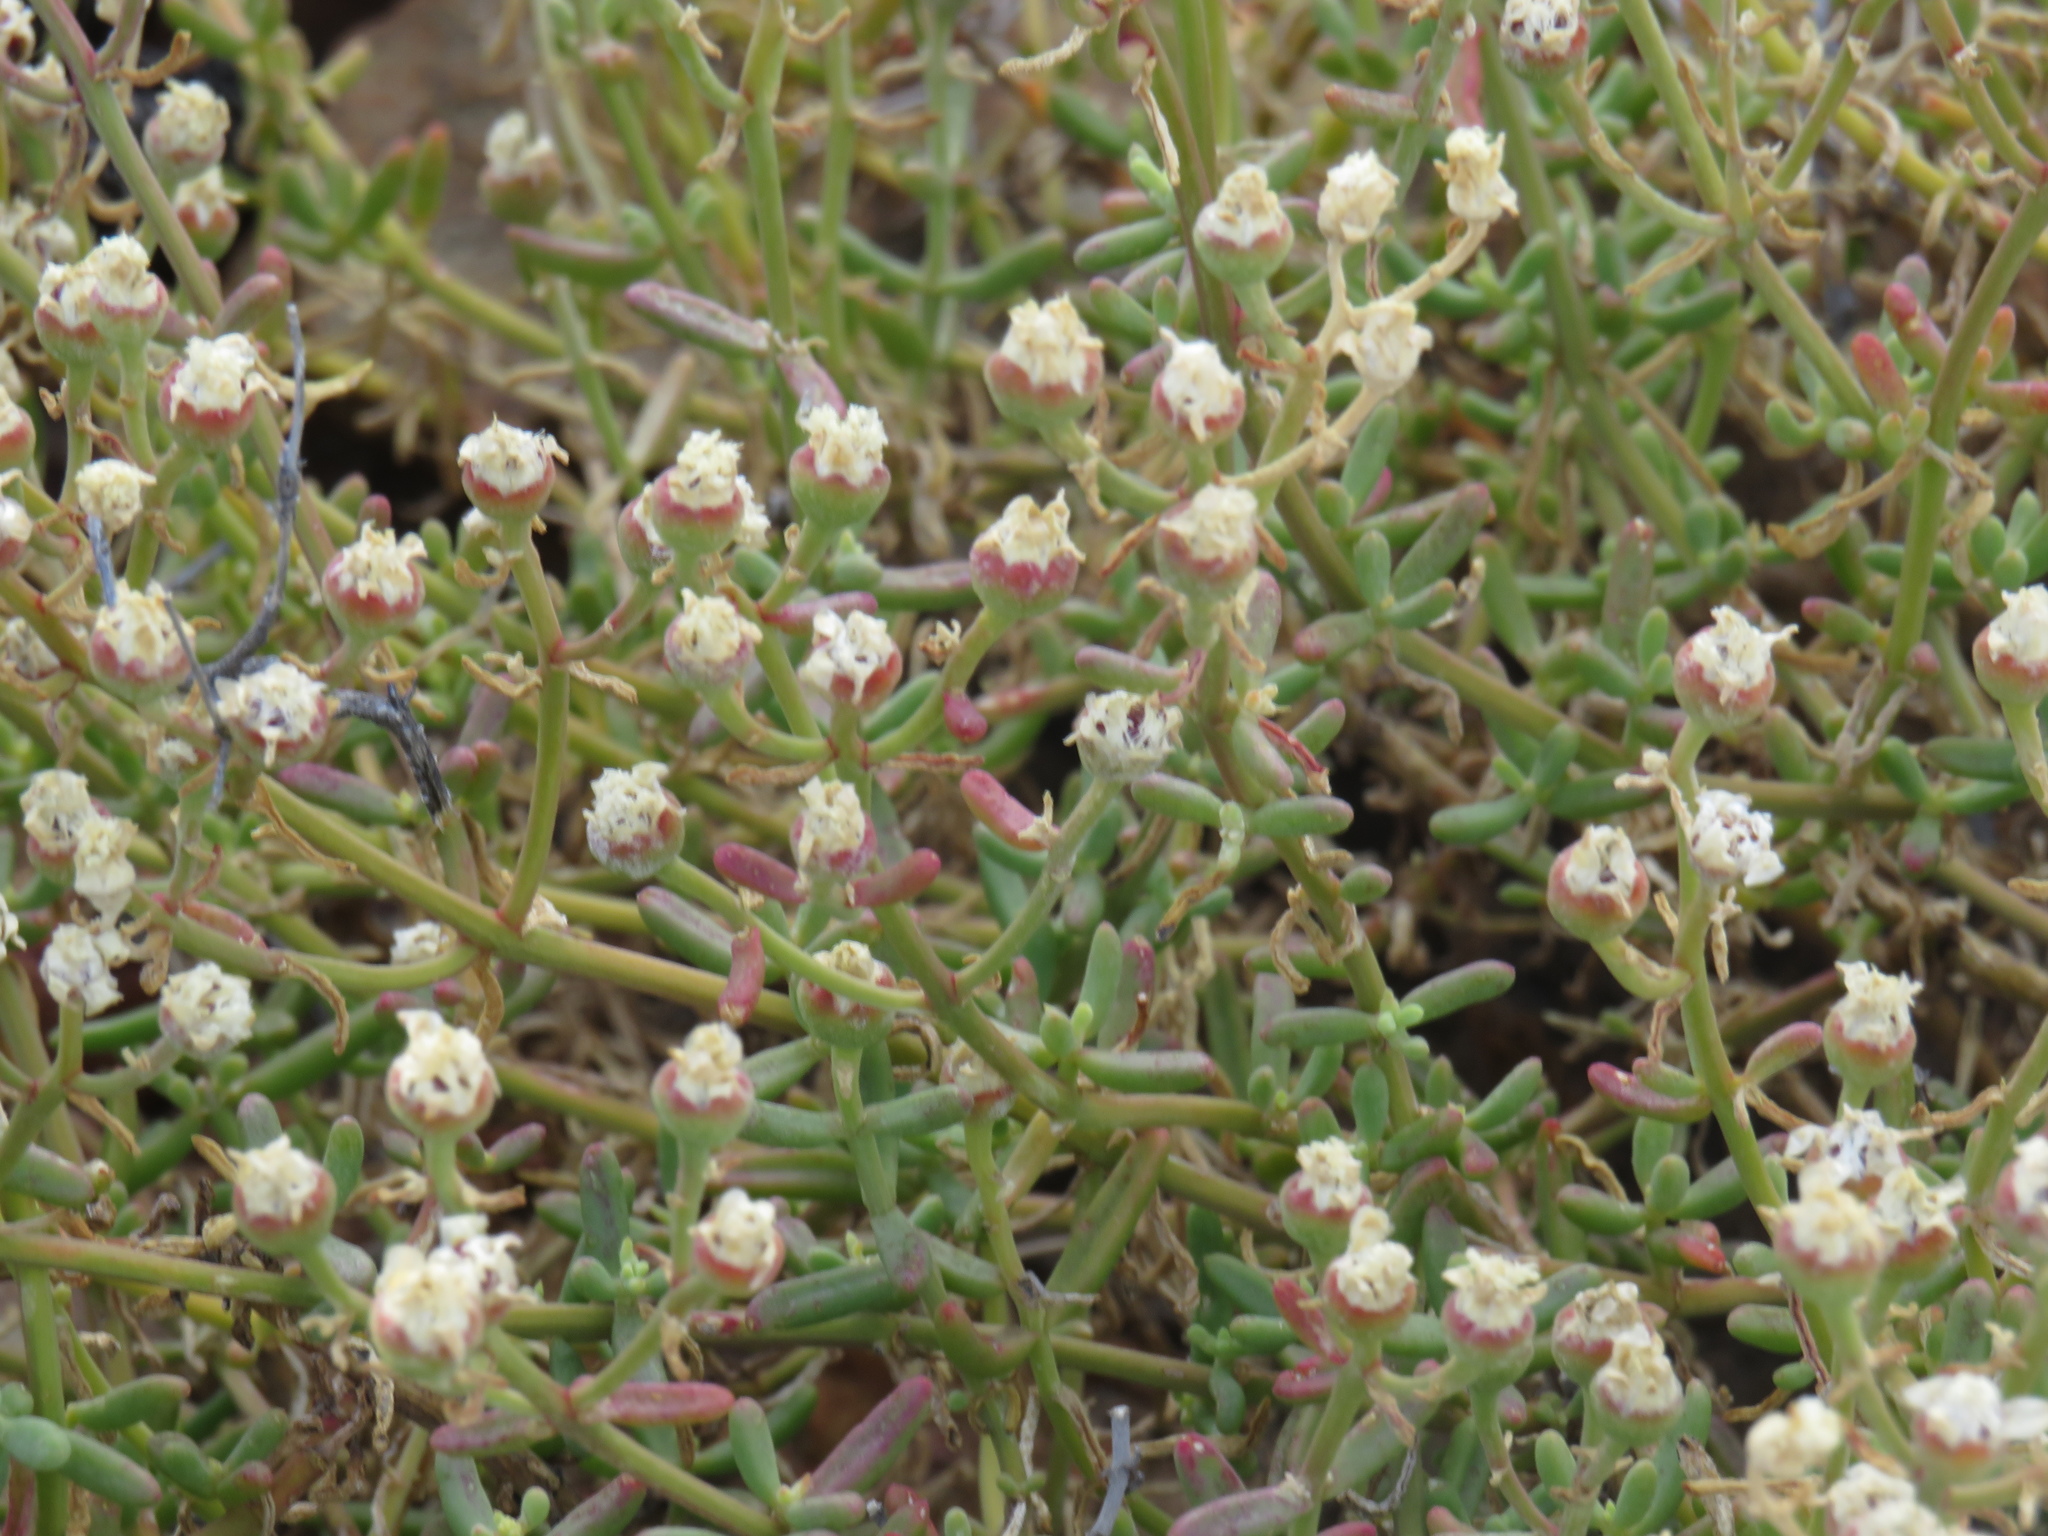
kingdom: Plantae
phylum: Tracheophyta
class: Magnoliopsida
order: Caryophyllales
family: Aizoaceae
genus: Mesembryanthemum
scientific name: Mesembryanthemum longistylum
